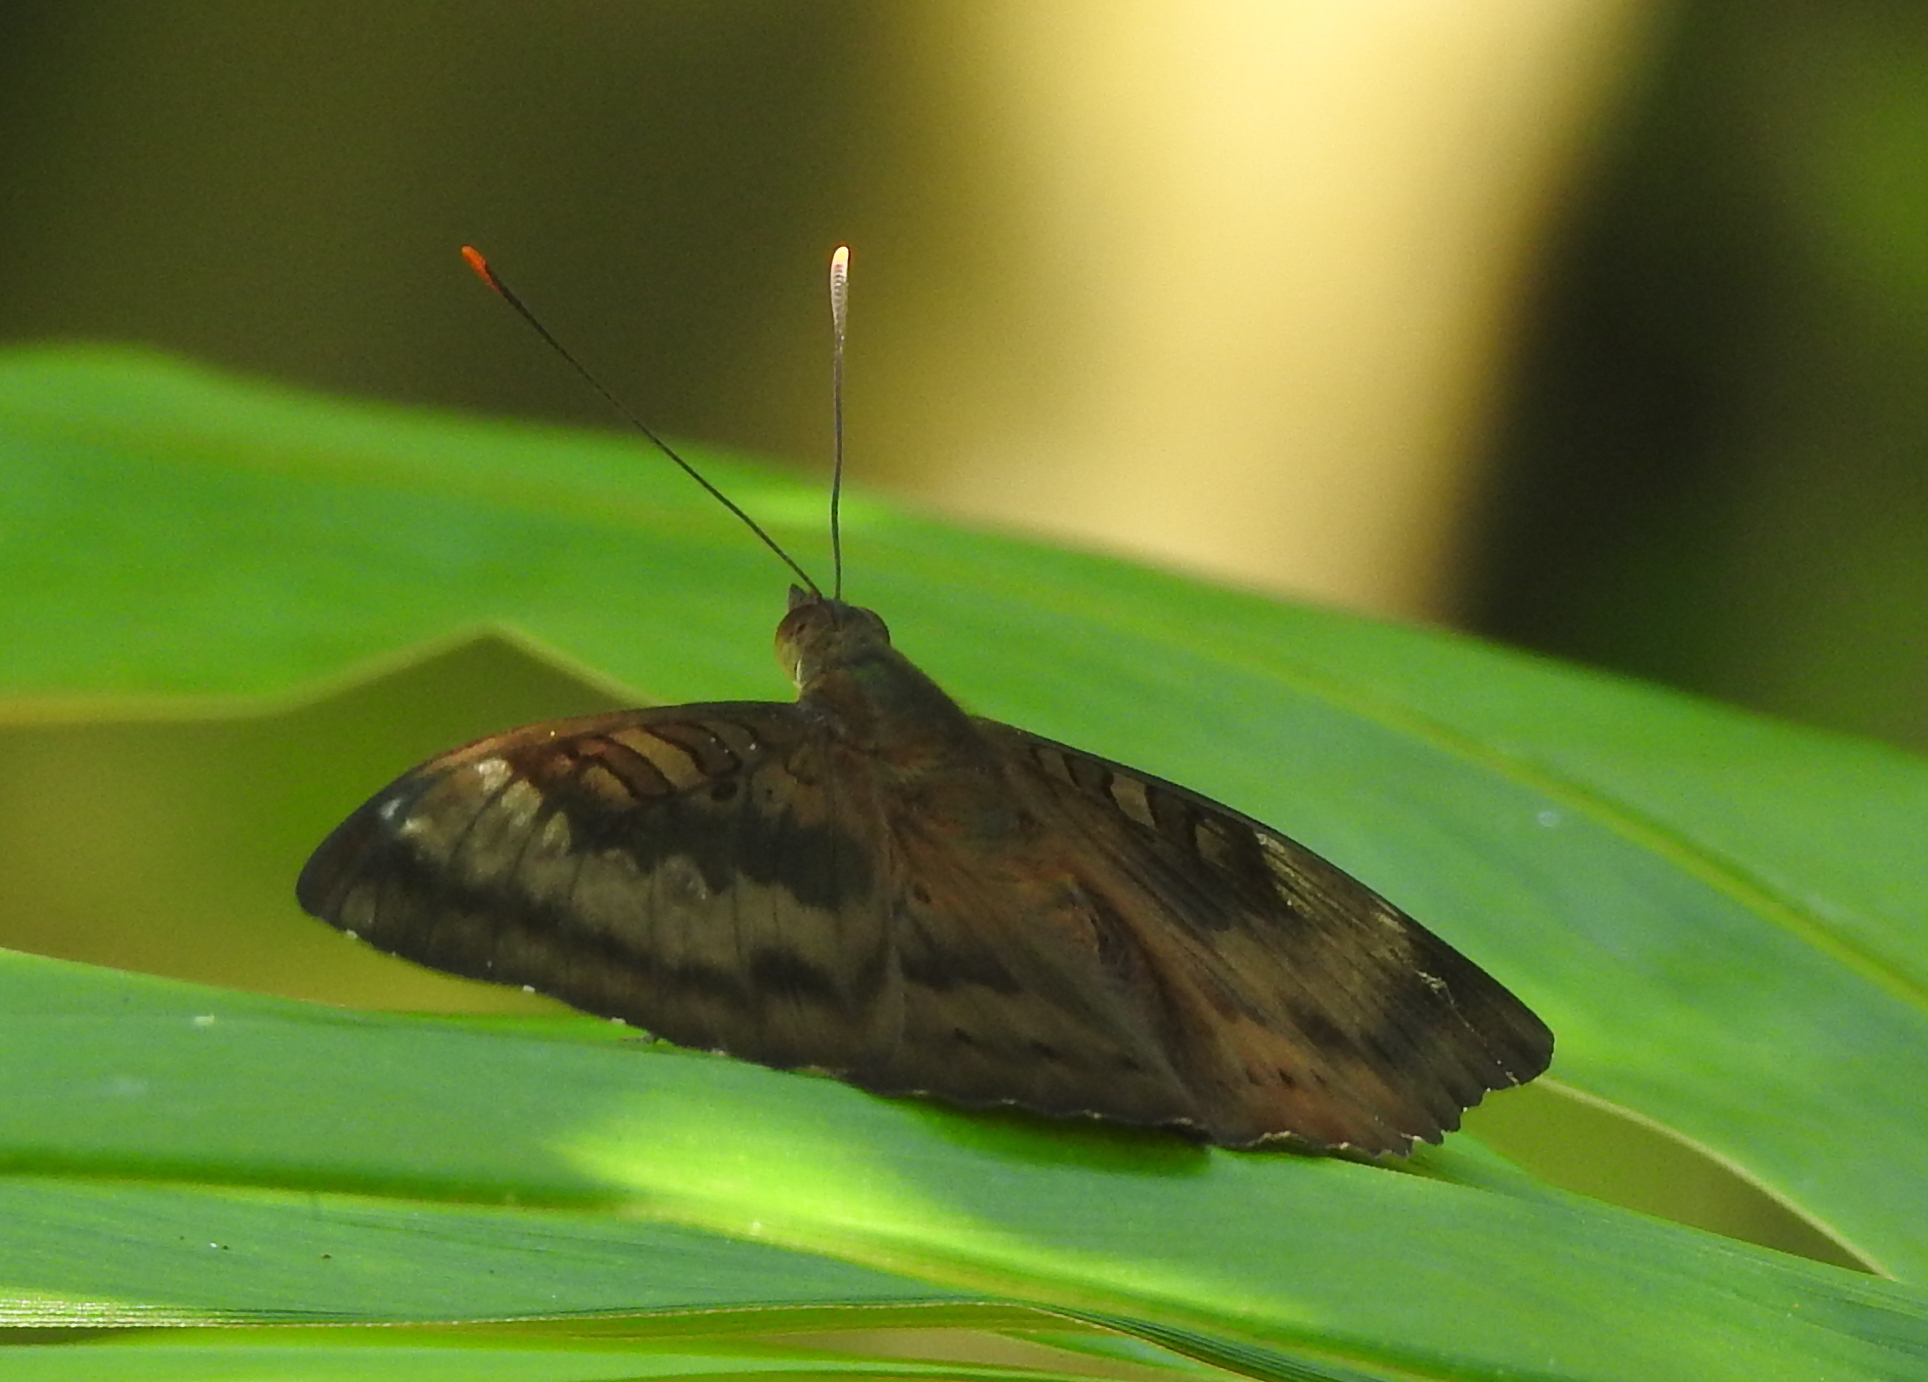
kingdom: Animalia
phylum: Arthropoda
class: Insecta
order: Lepidoptera
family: Nymphalidae
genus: Euthalia
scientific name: Euthalia aconthea
